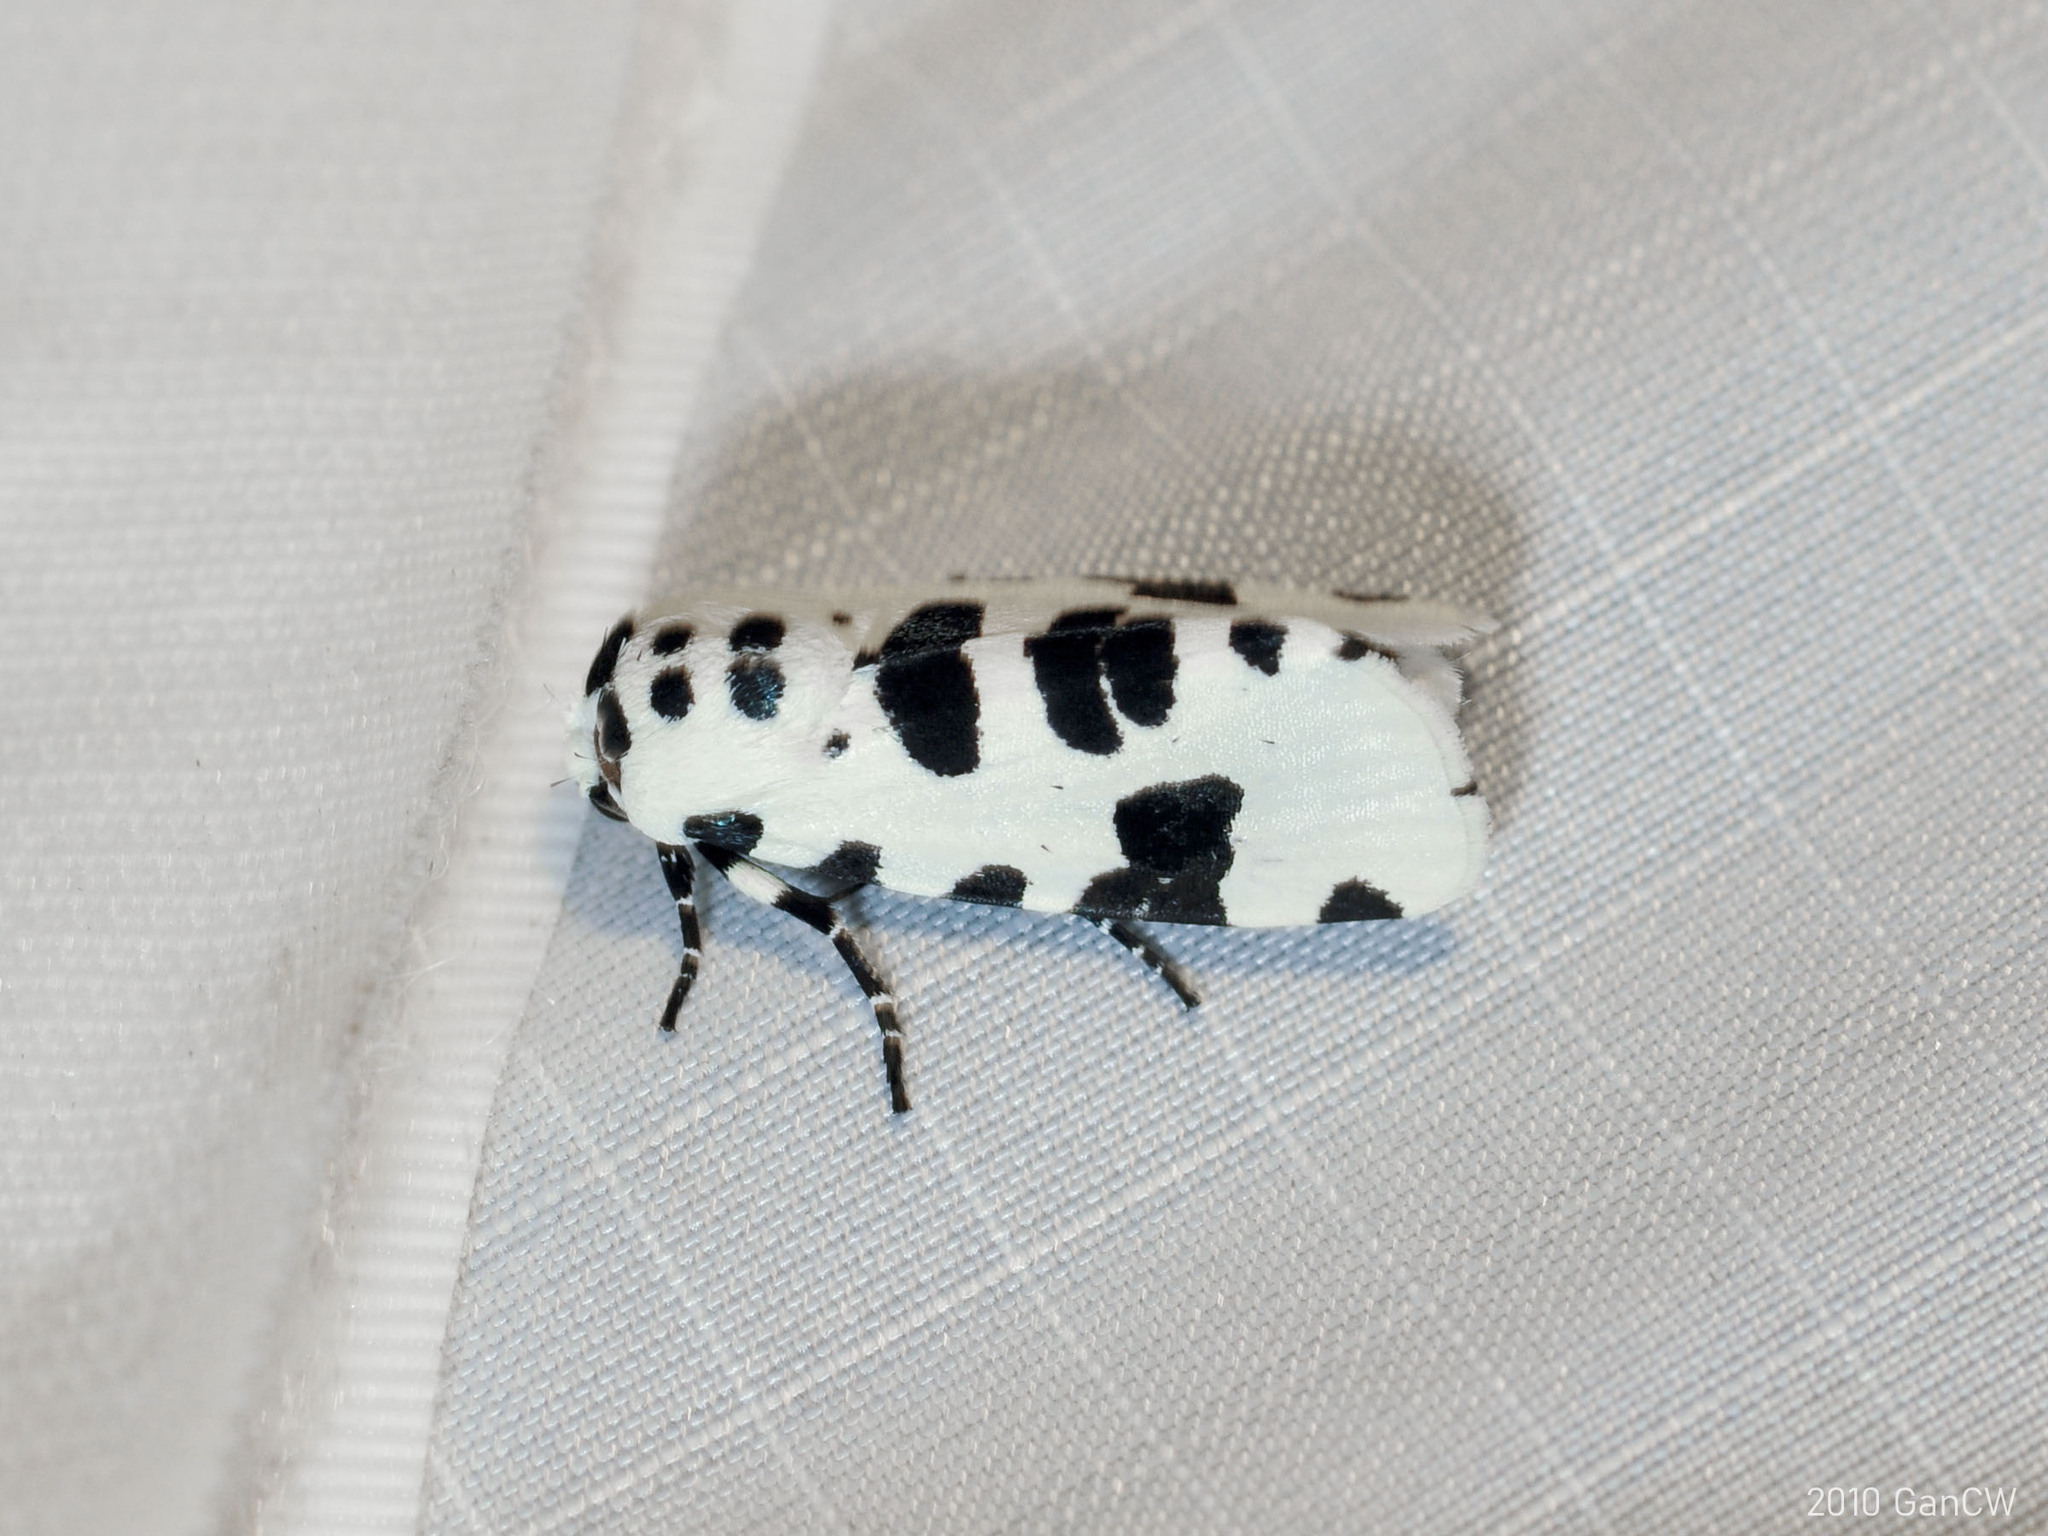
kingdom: Animalia
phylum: Arthropoda
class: Insecta
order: Lepidoptera
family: Noctuidae
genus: Clethrorasa
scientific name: Clethrorasa pilcheri
